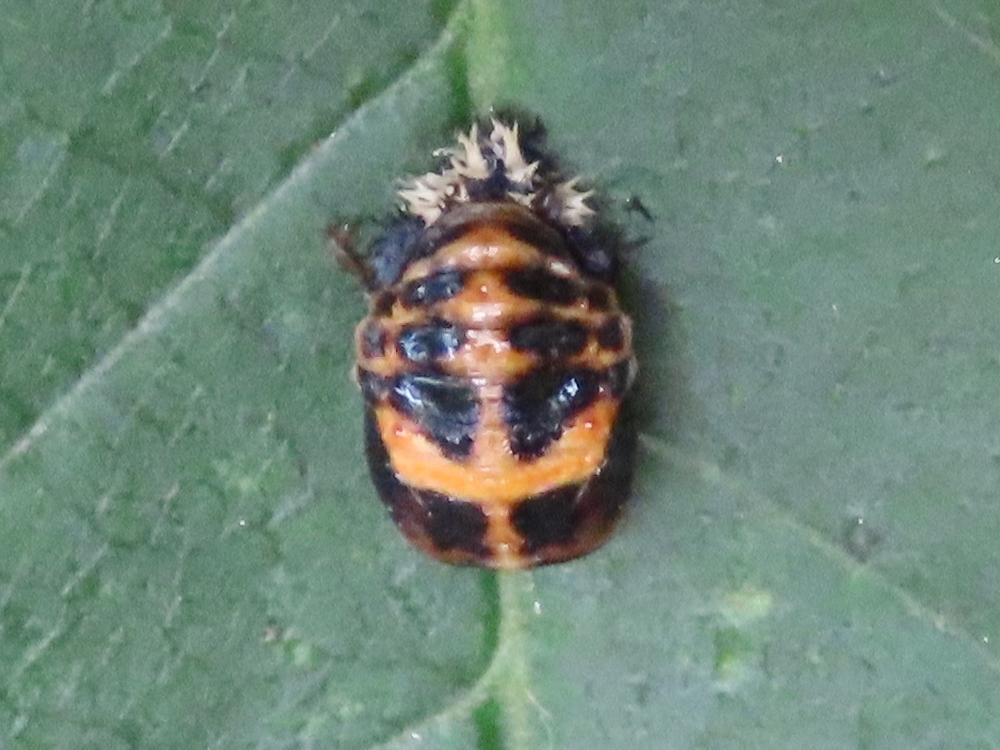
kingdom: Animalia
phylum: Arthropoda
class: Insecta
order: Coleoptera
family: Coccinellidae
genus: Harmonia
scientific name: Harmonia axyridis
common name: Harlequin ladybird
